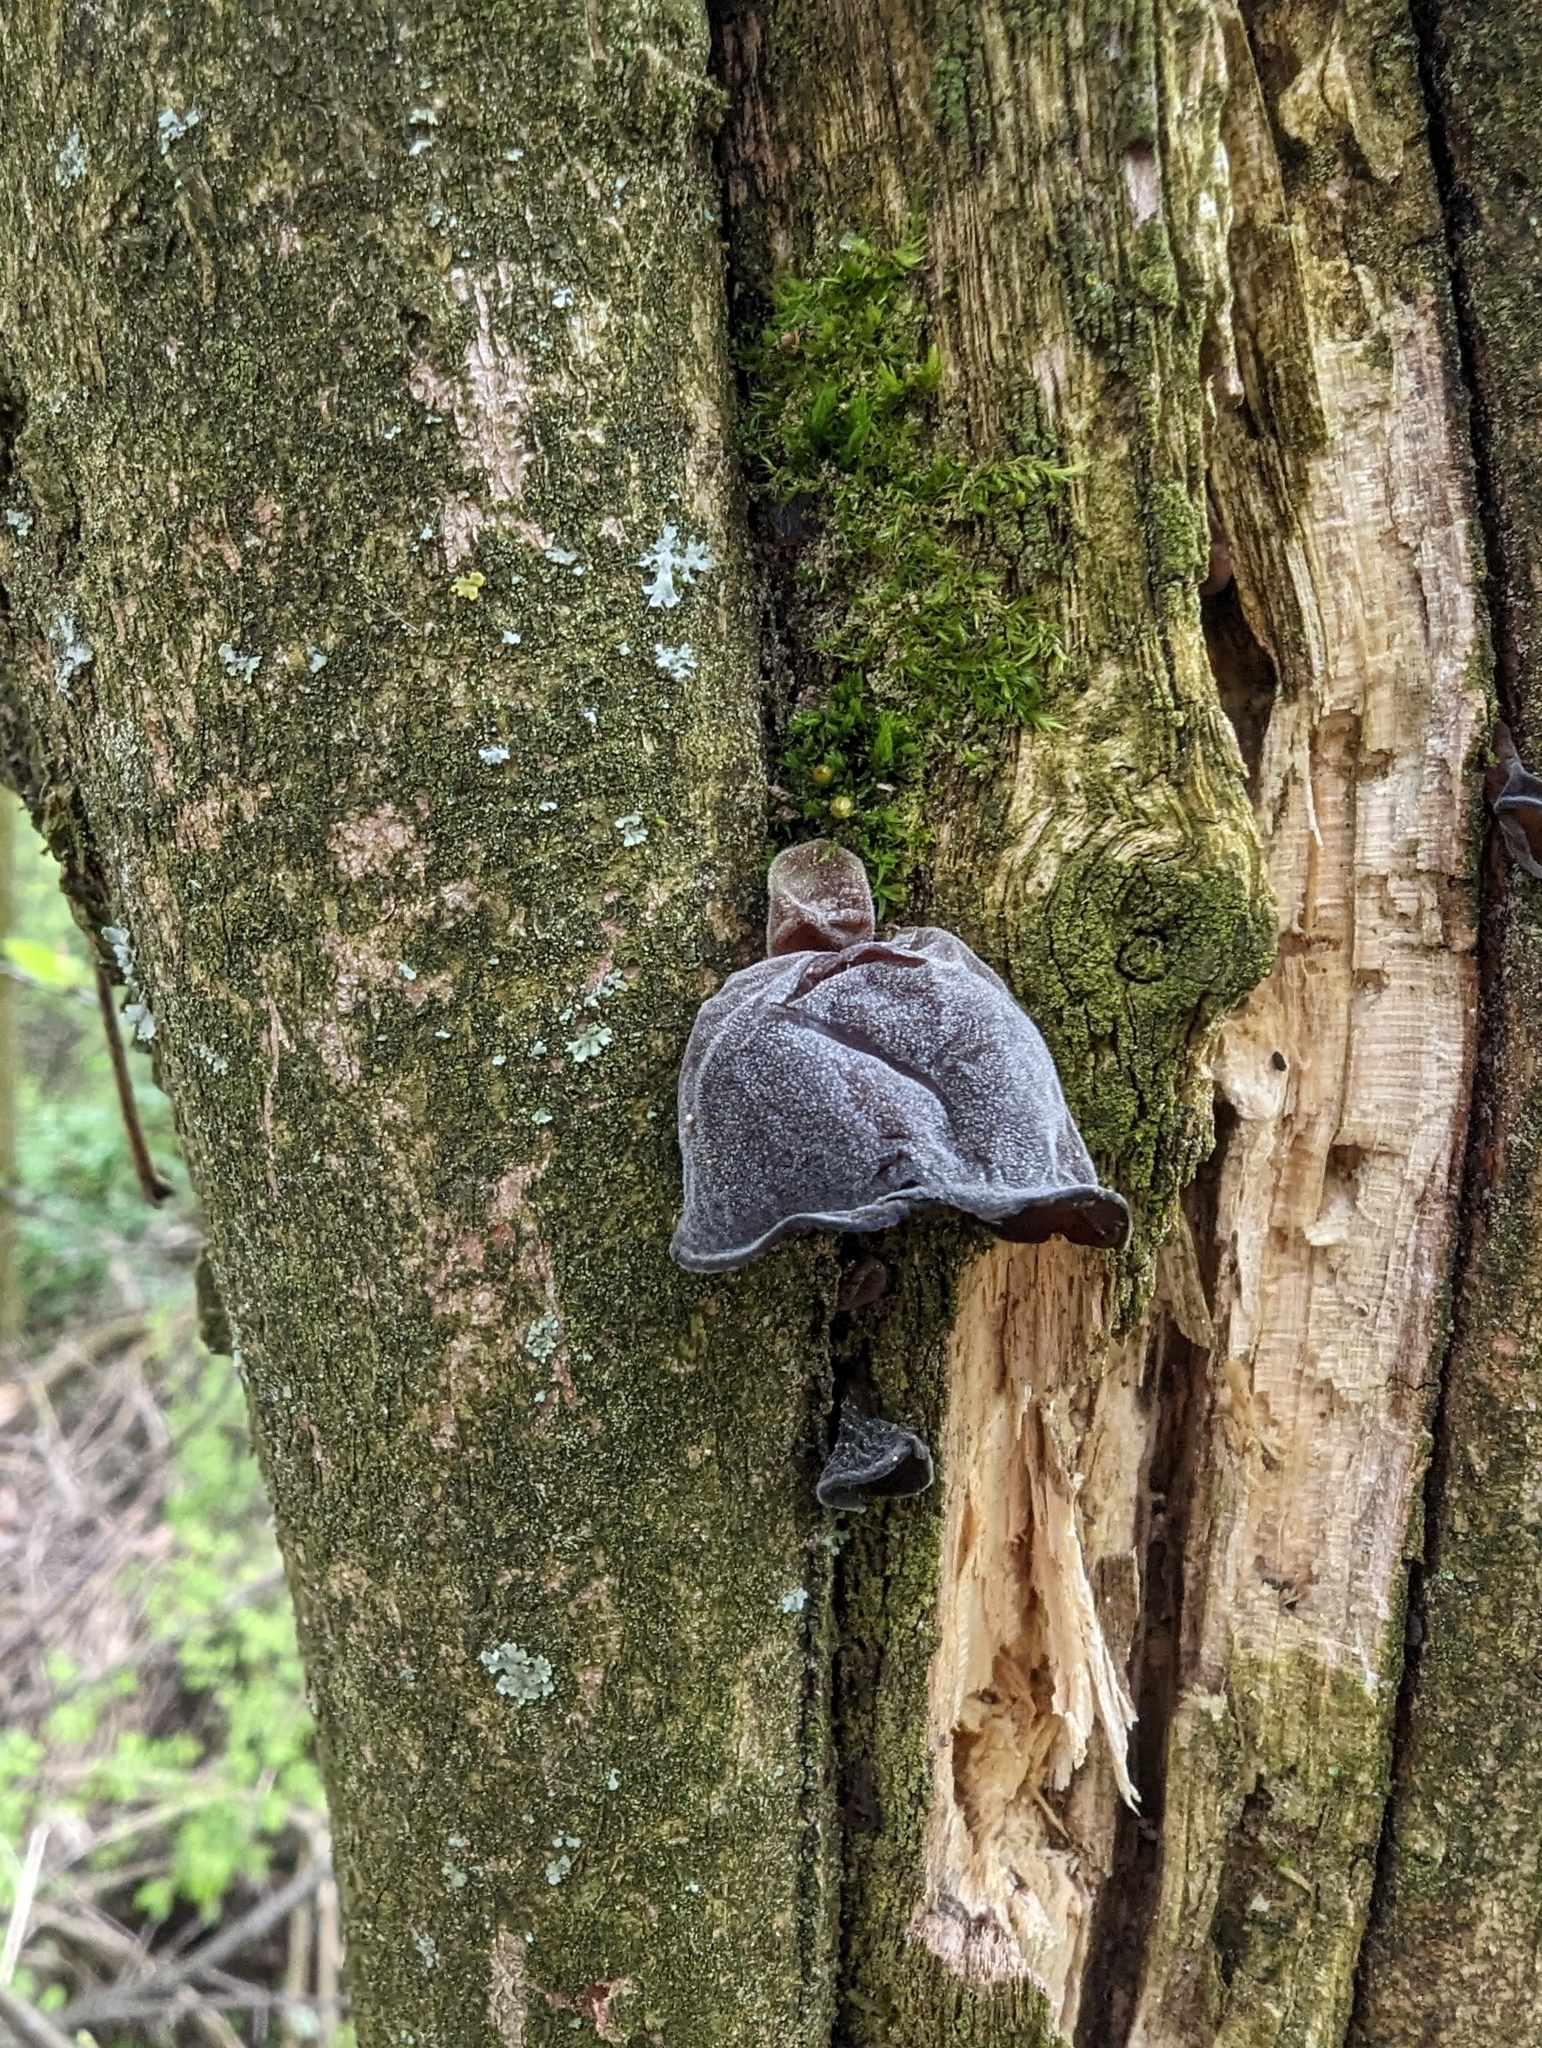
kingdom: Fungi
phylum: Basidiomycota
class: Agaricomycetes
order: Auriculariales
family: Auriculariaceae
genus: Auricularia
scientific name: Auricularia auricula-judae
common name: Jelly ear
